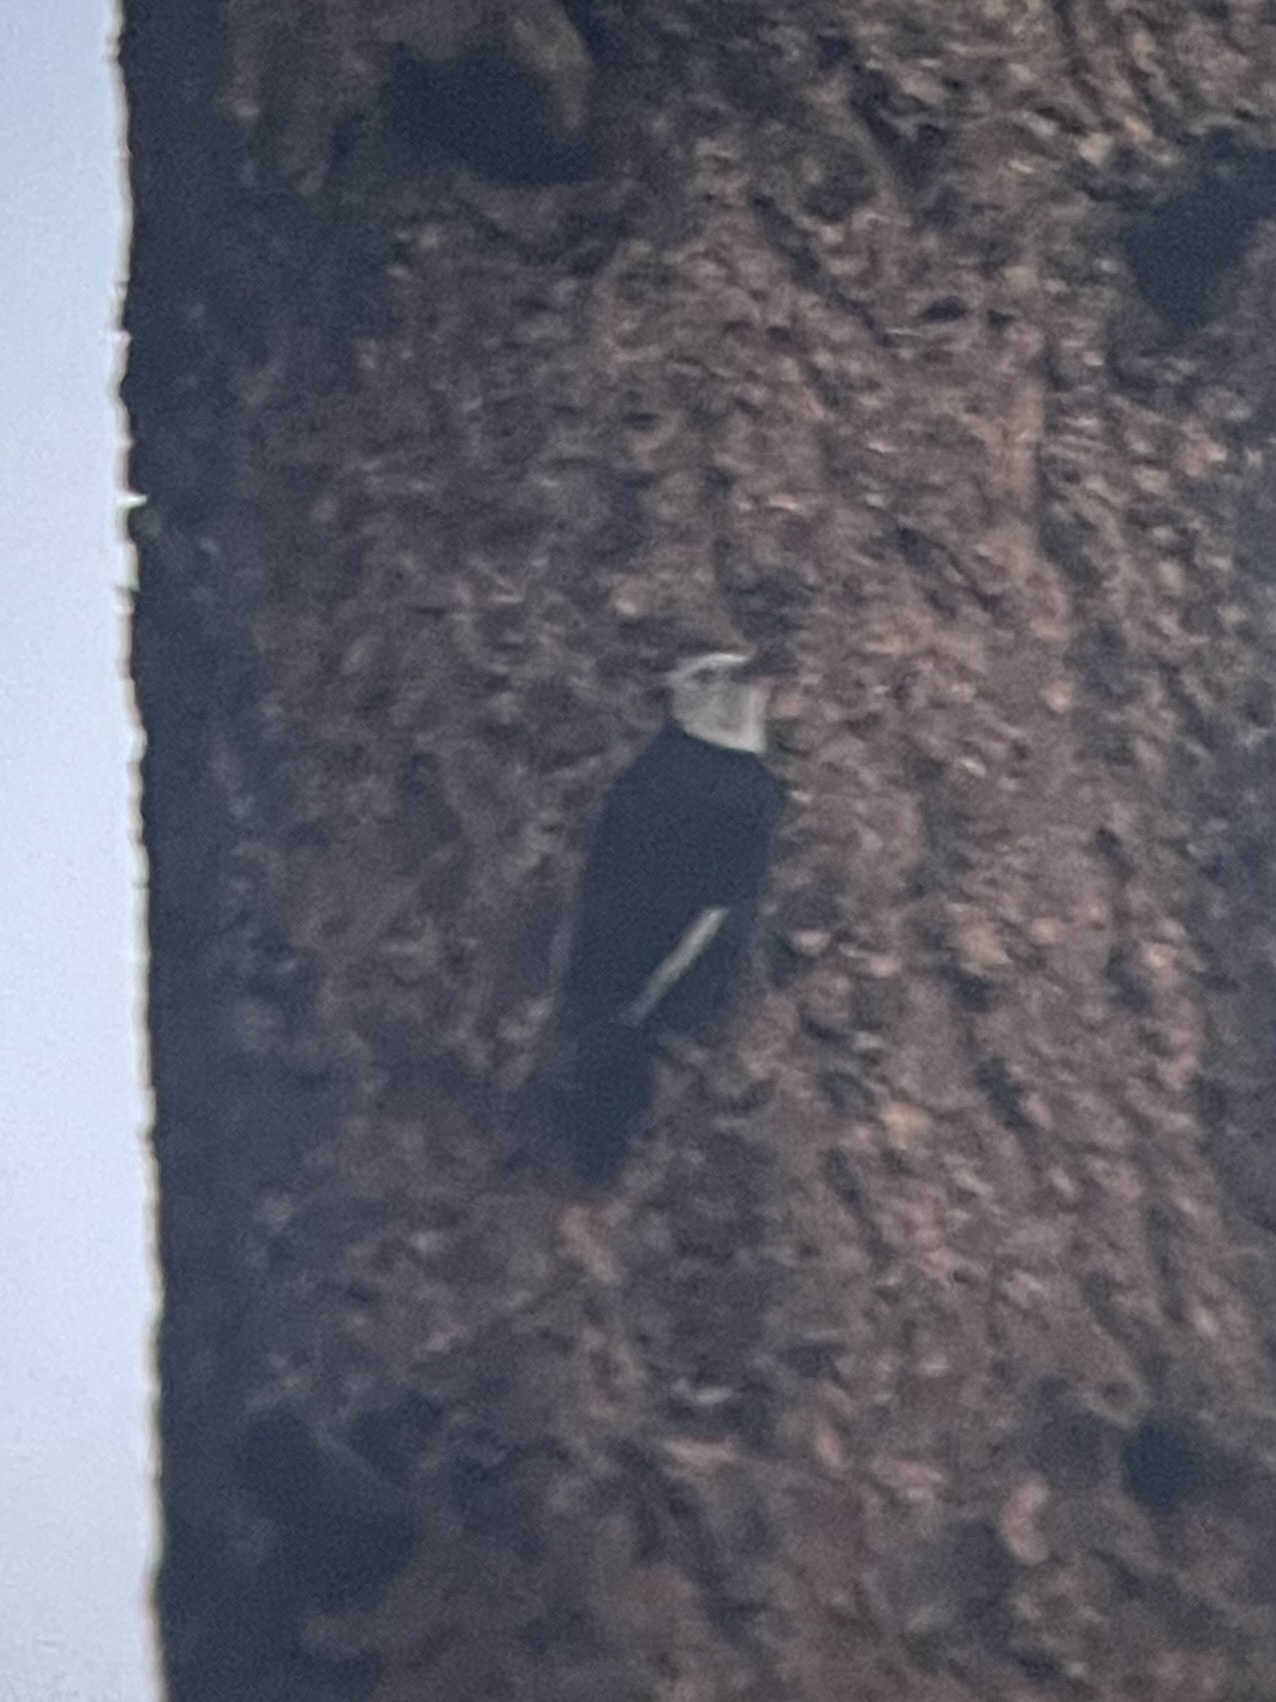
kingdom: Animalia
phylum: Chordata
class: Aves
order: Piciformes
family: Picidae
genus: Leuconotopicus
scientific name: Leuconotopicus albolarvatus
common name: White-headed woodpecker
